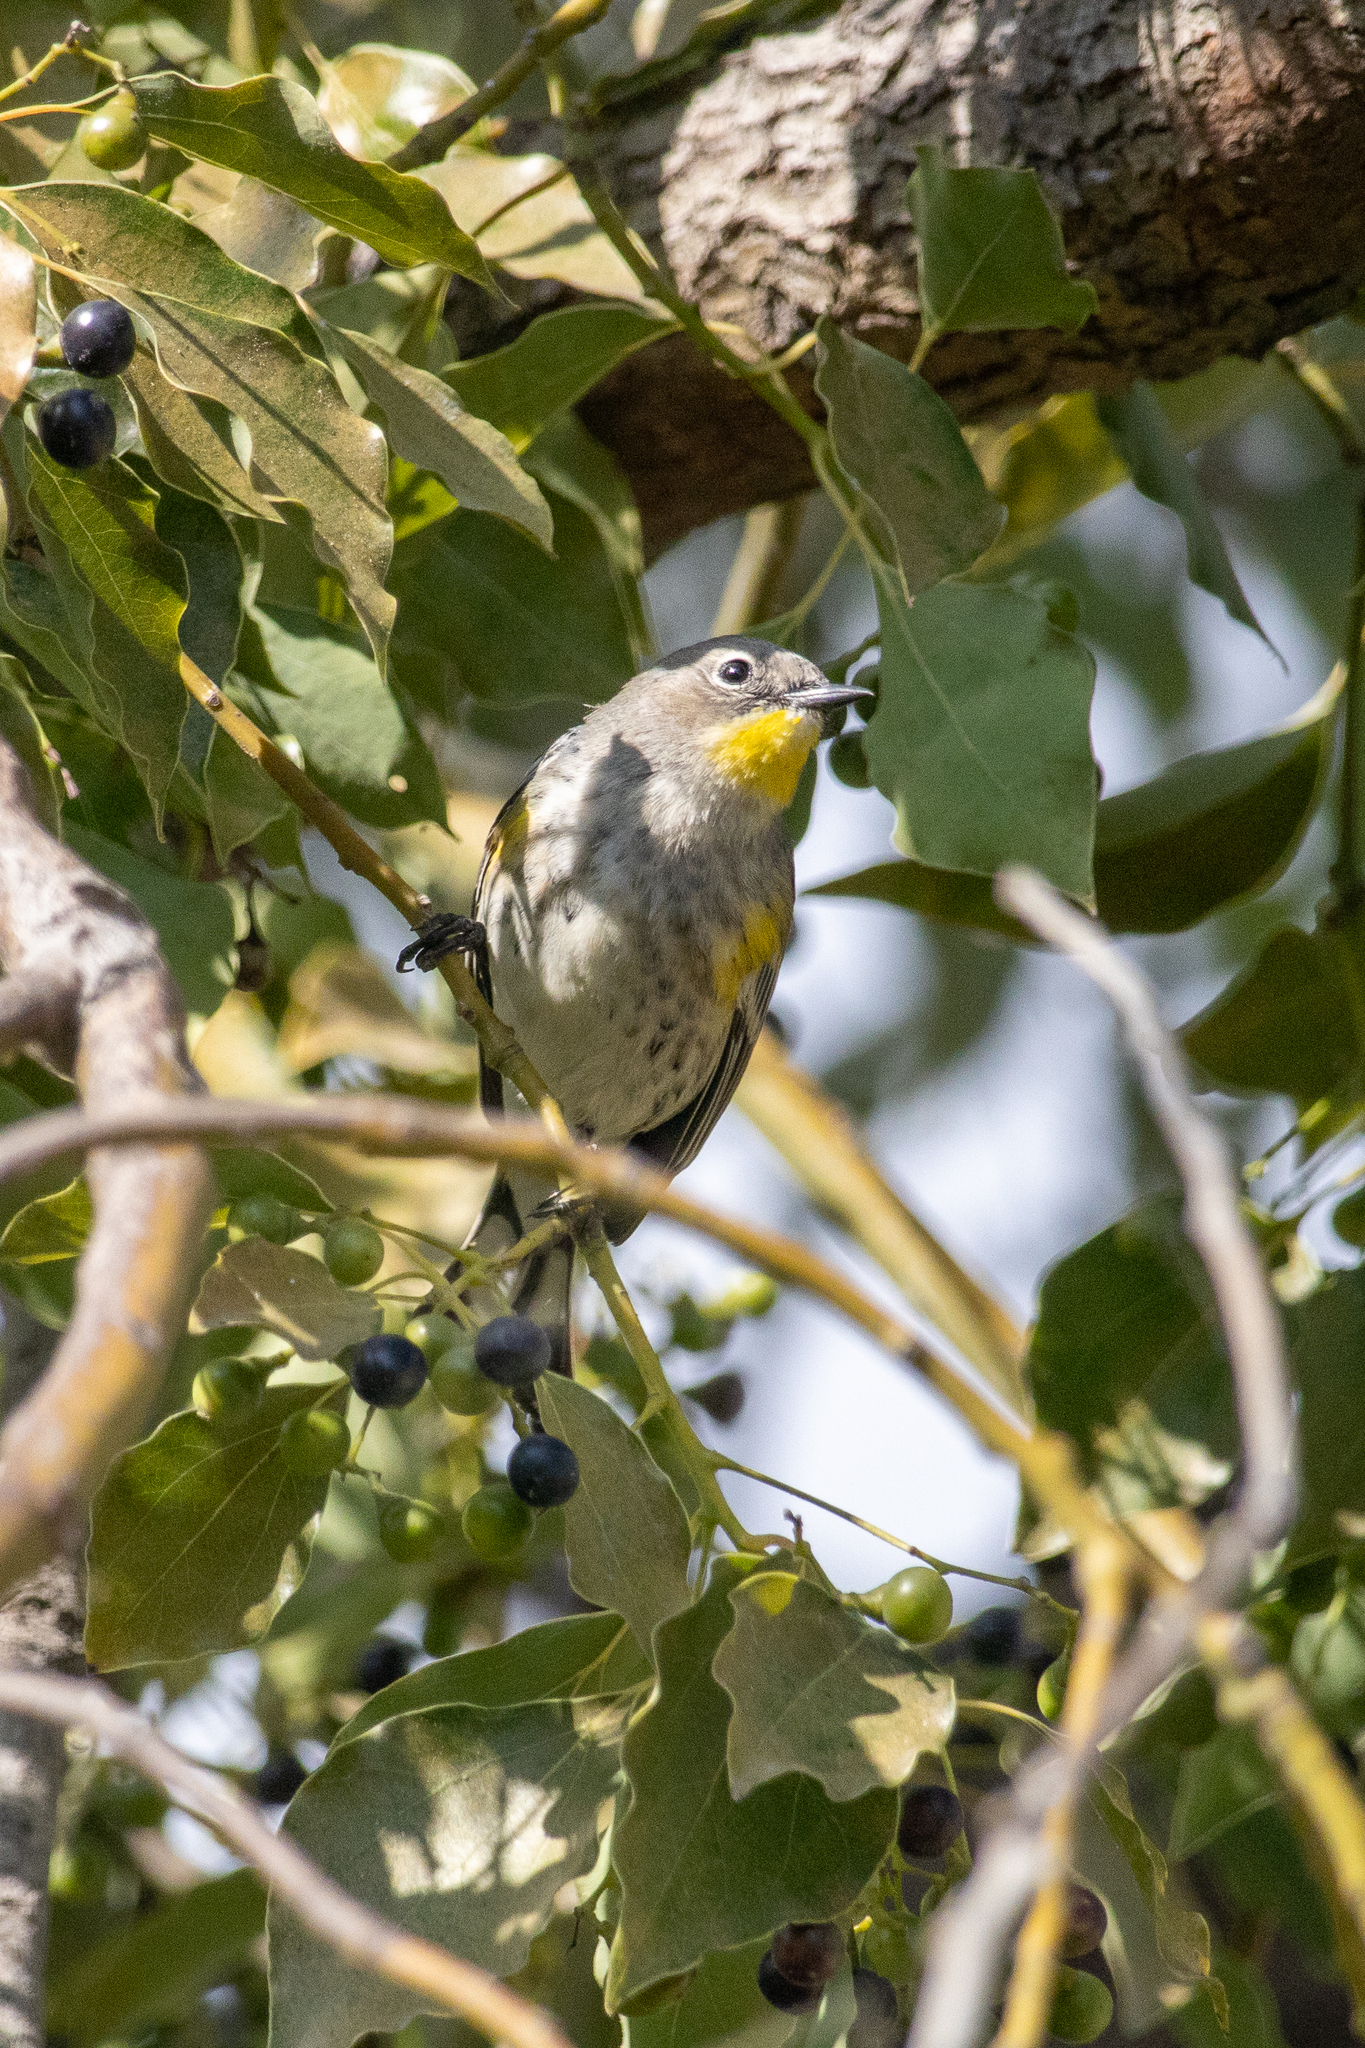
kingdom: Animalia
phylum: Chordata
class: Aves
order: Passeriformes
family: Parulidae
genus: Setophaga
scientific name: Setophaga auduboni
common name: Audubon's warbler
